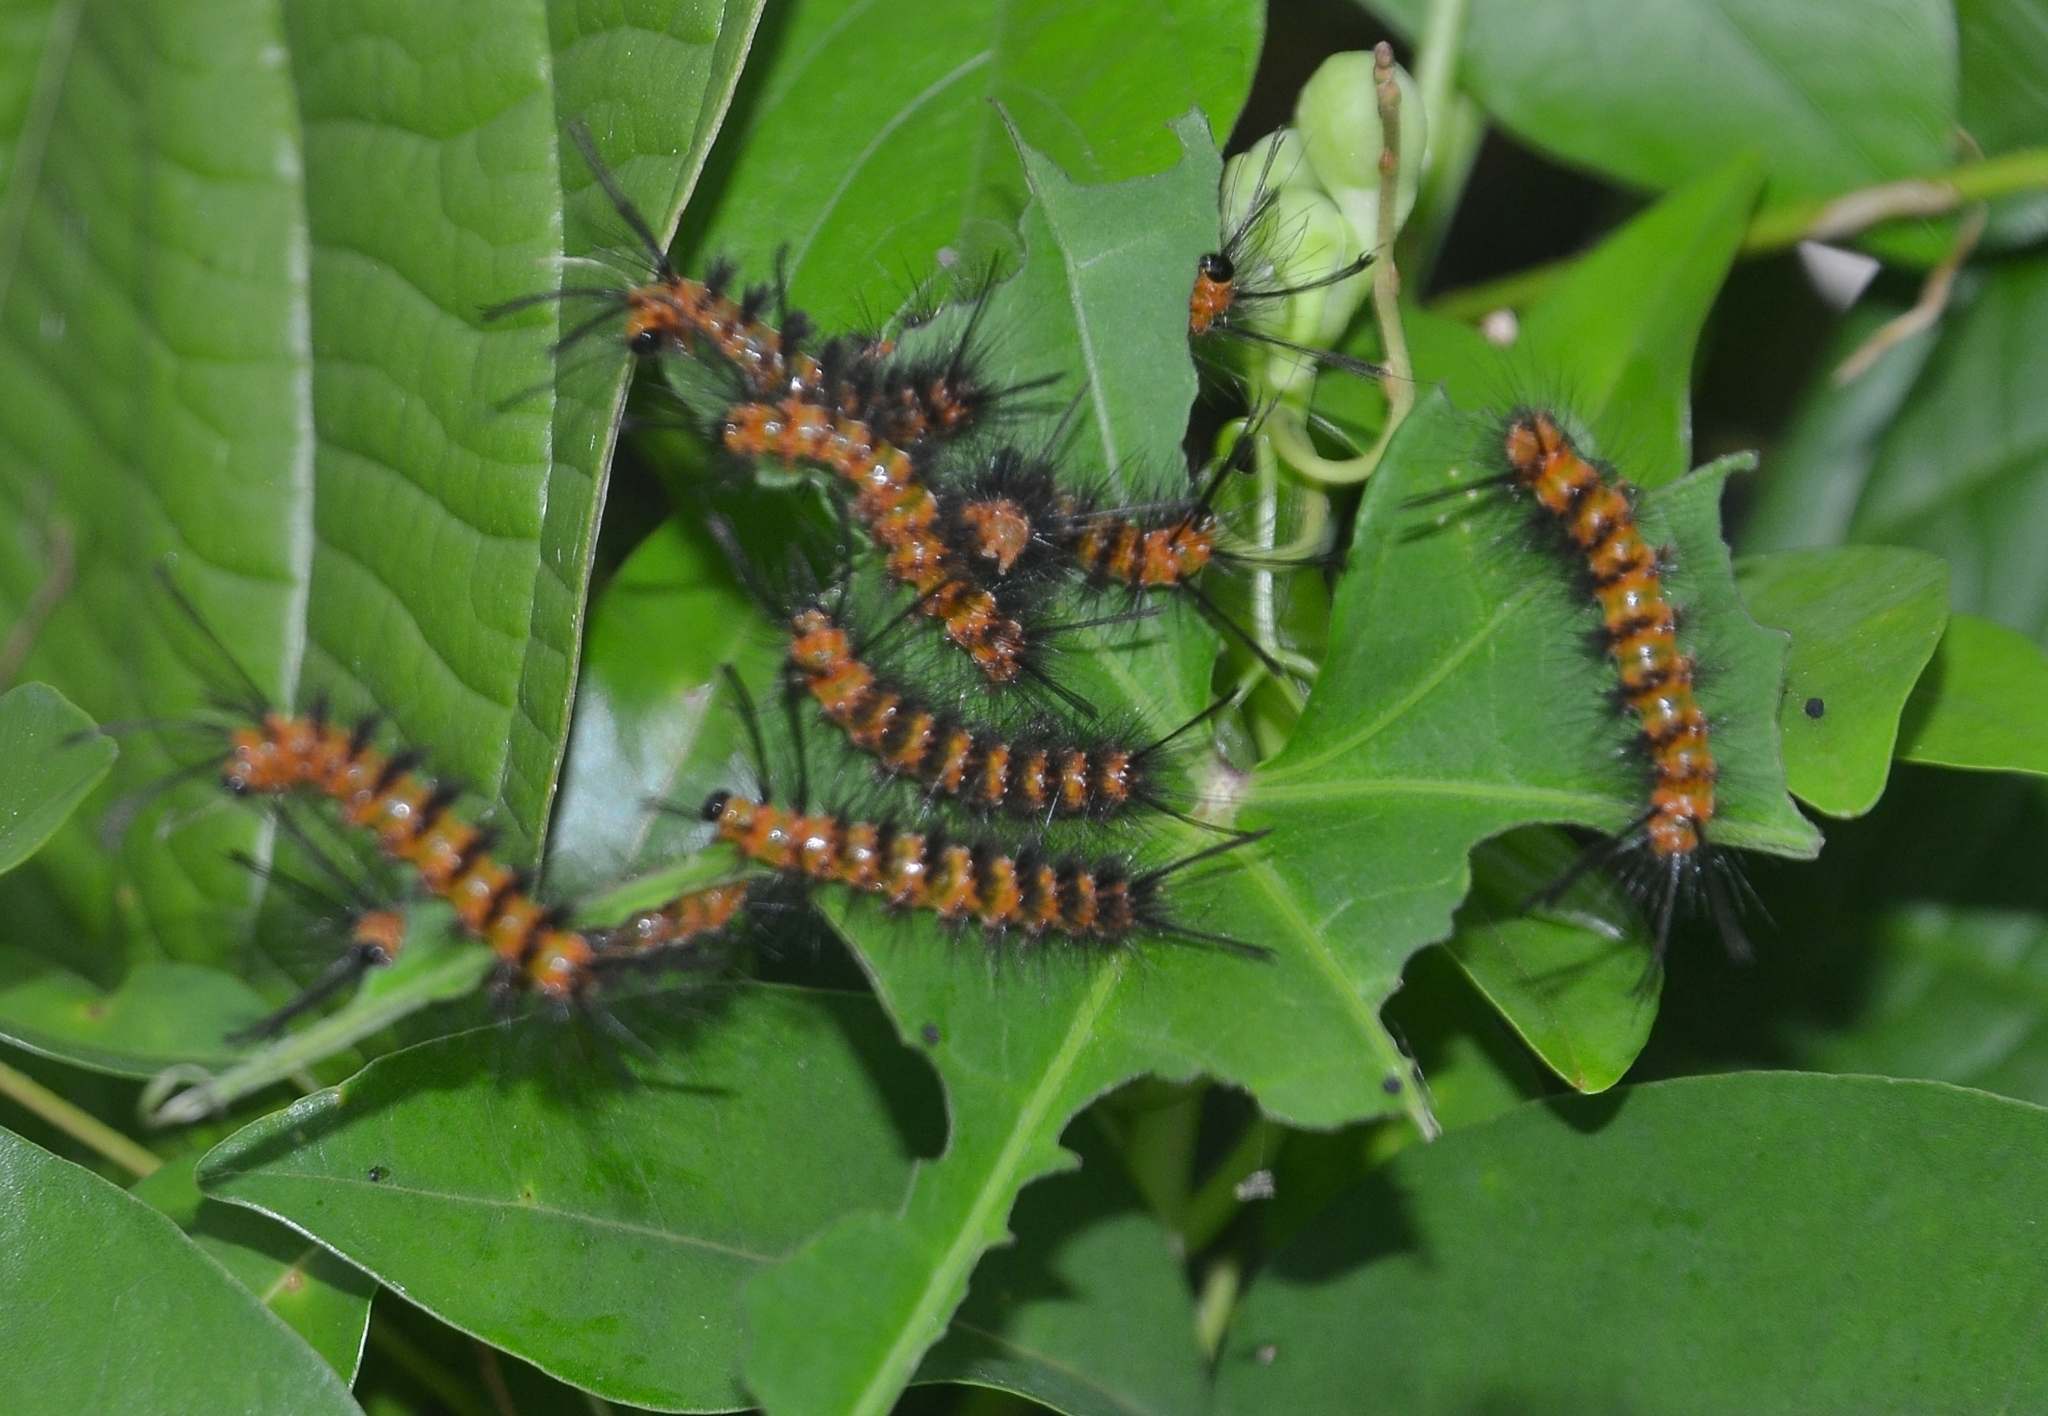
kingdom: Animalia
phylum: Arthropoda
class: Insecta
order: Lepidoptera
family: Erebidae
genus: Euchromia
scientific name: Euchromia polymena
